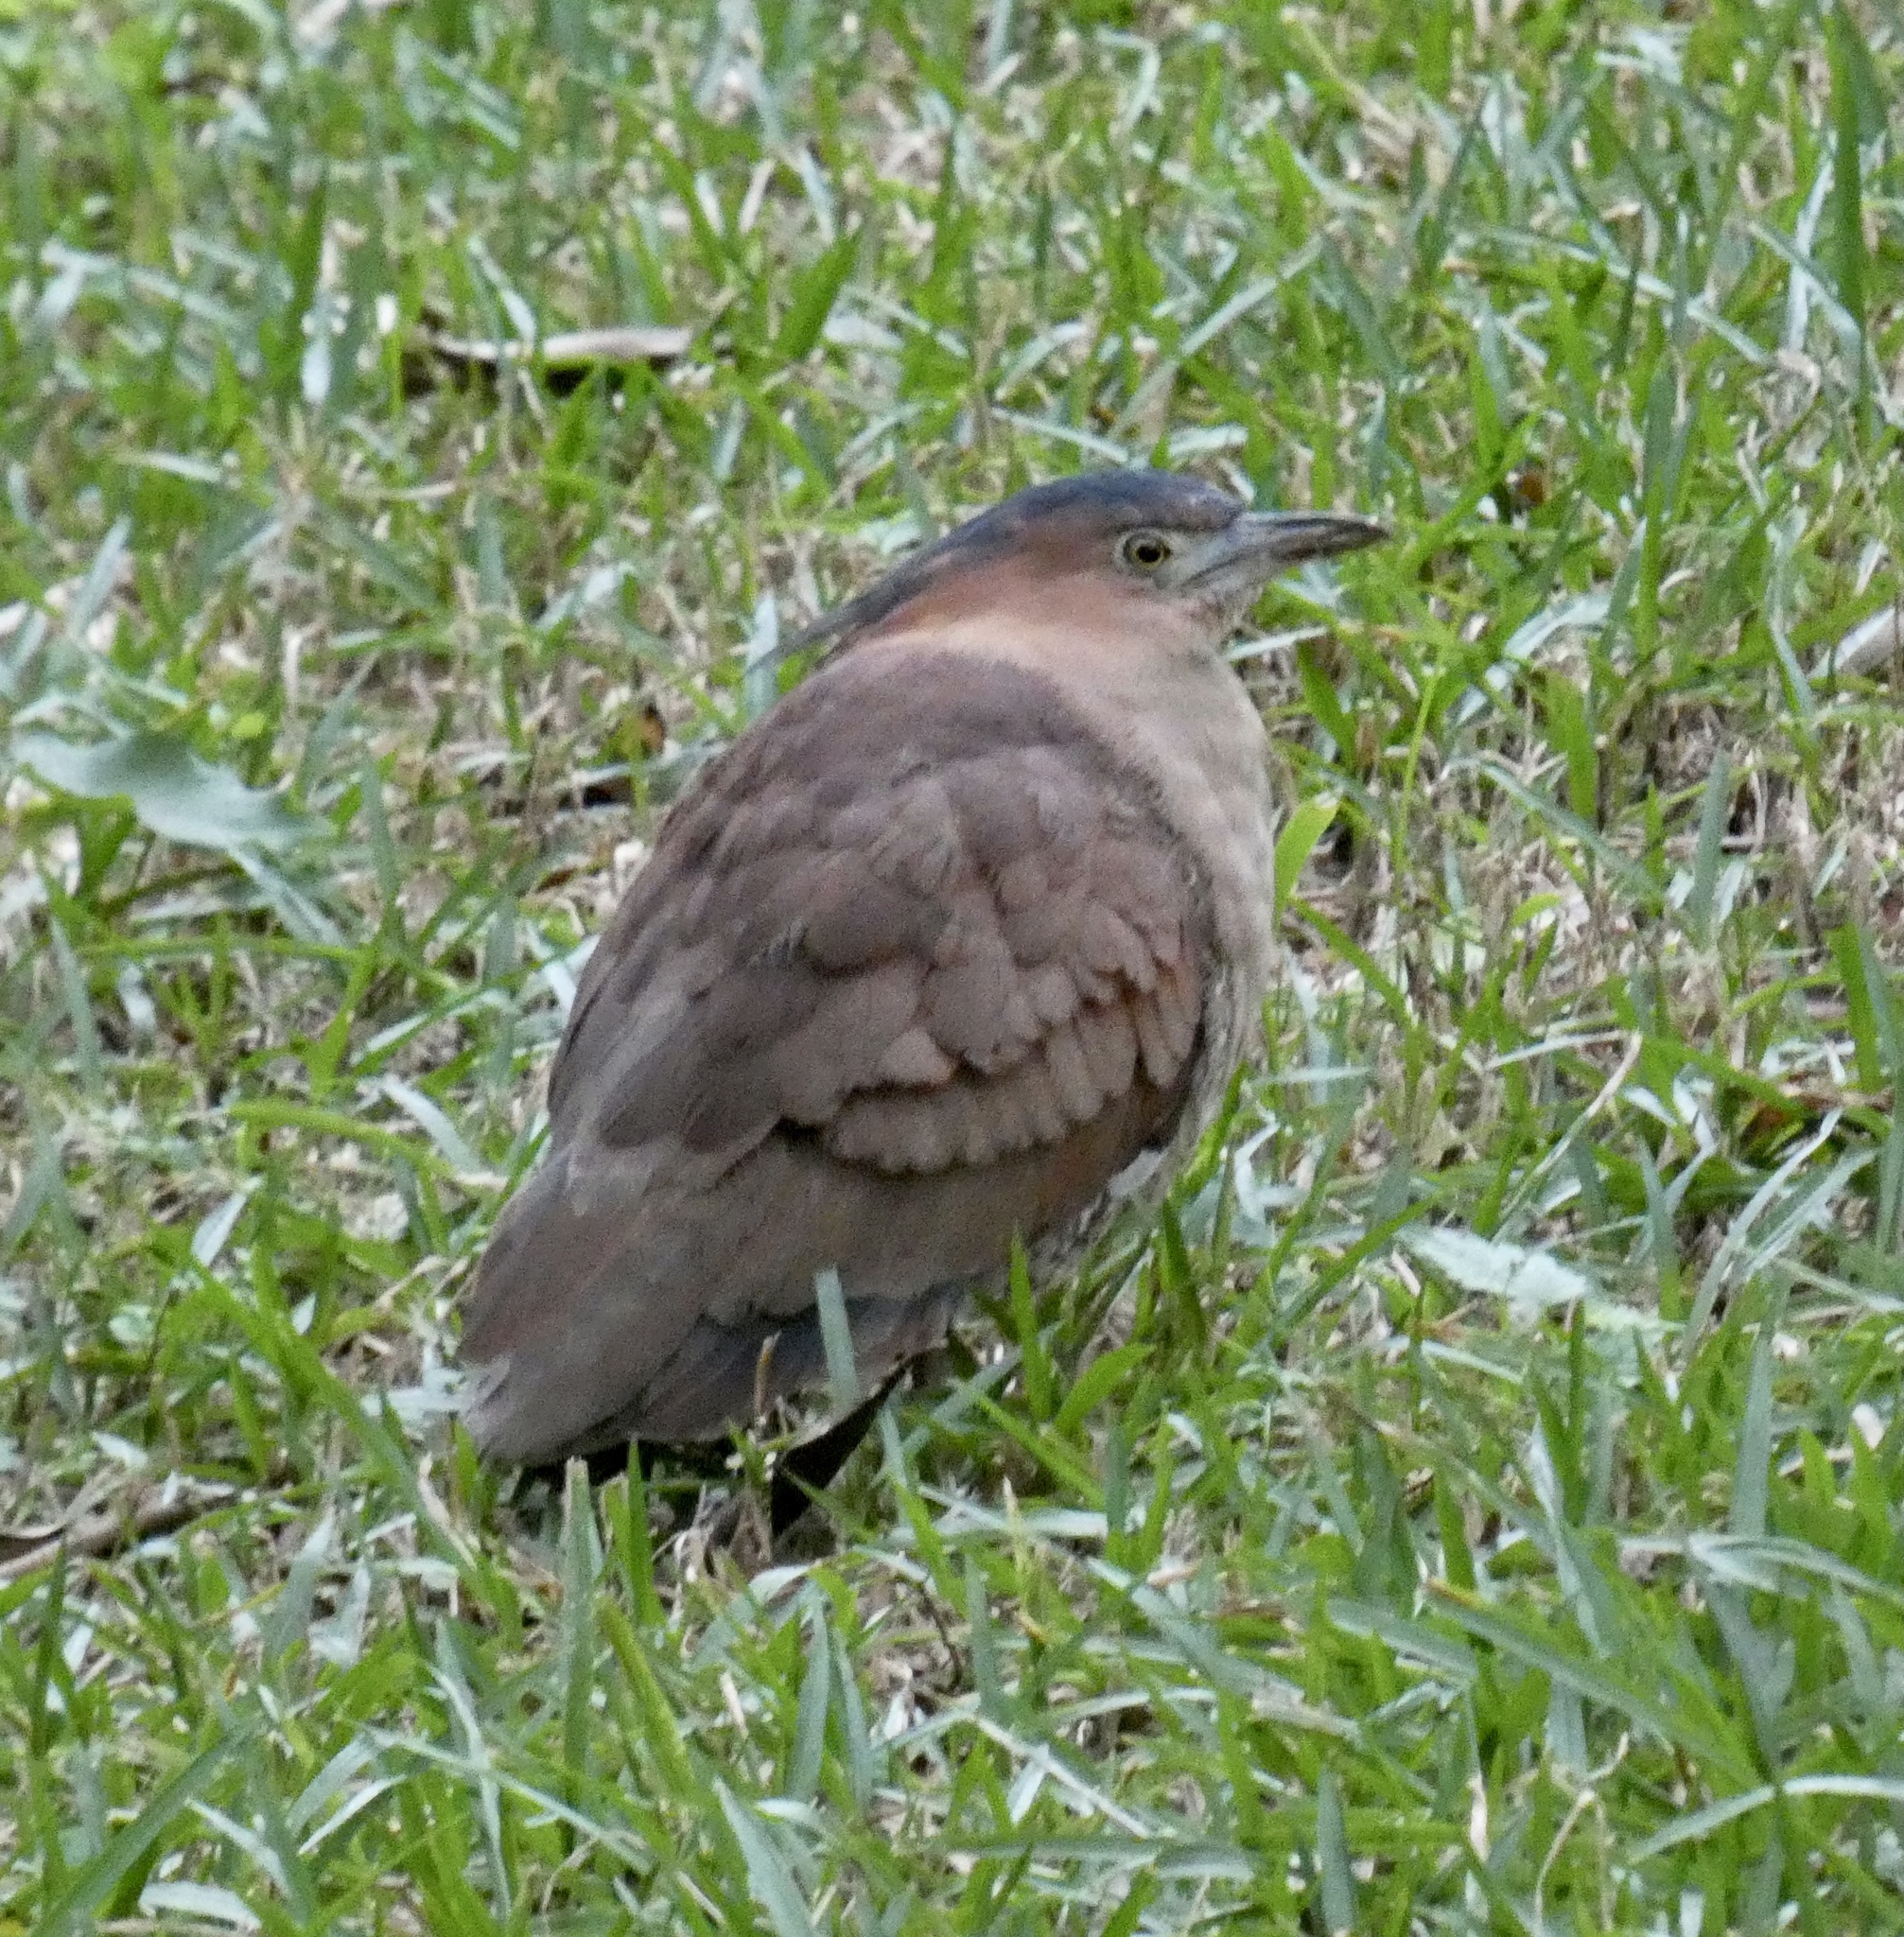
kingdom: Animalia
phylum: Chordata
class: Aves
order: Pelecaniformes
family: Ardeidae
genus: Gorsachius
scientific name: Gorsachius melanolophus
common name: Malayan night heron
